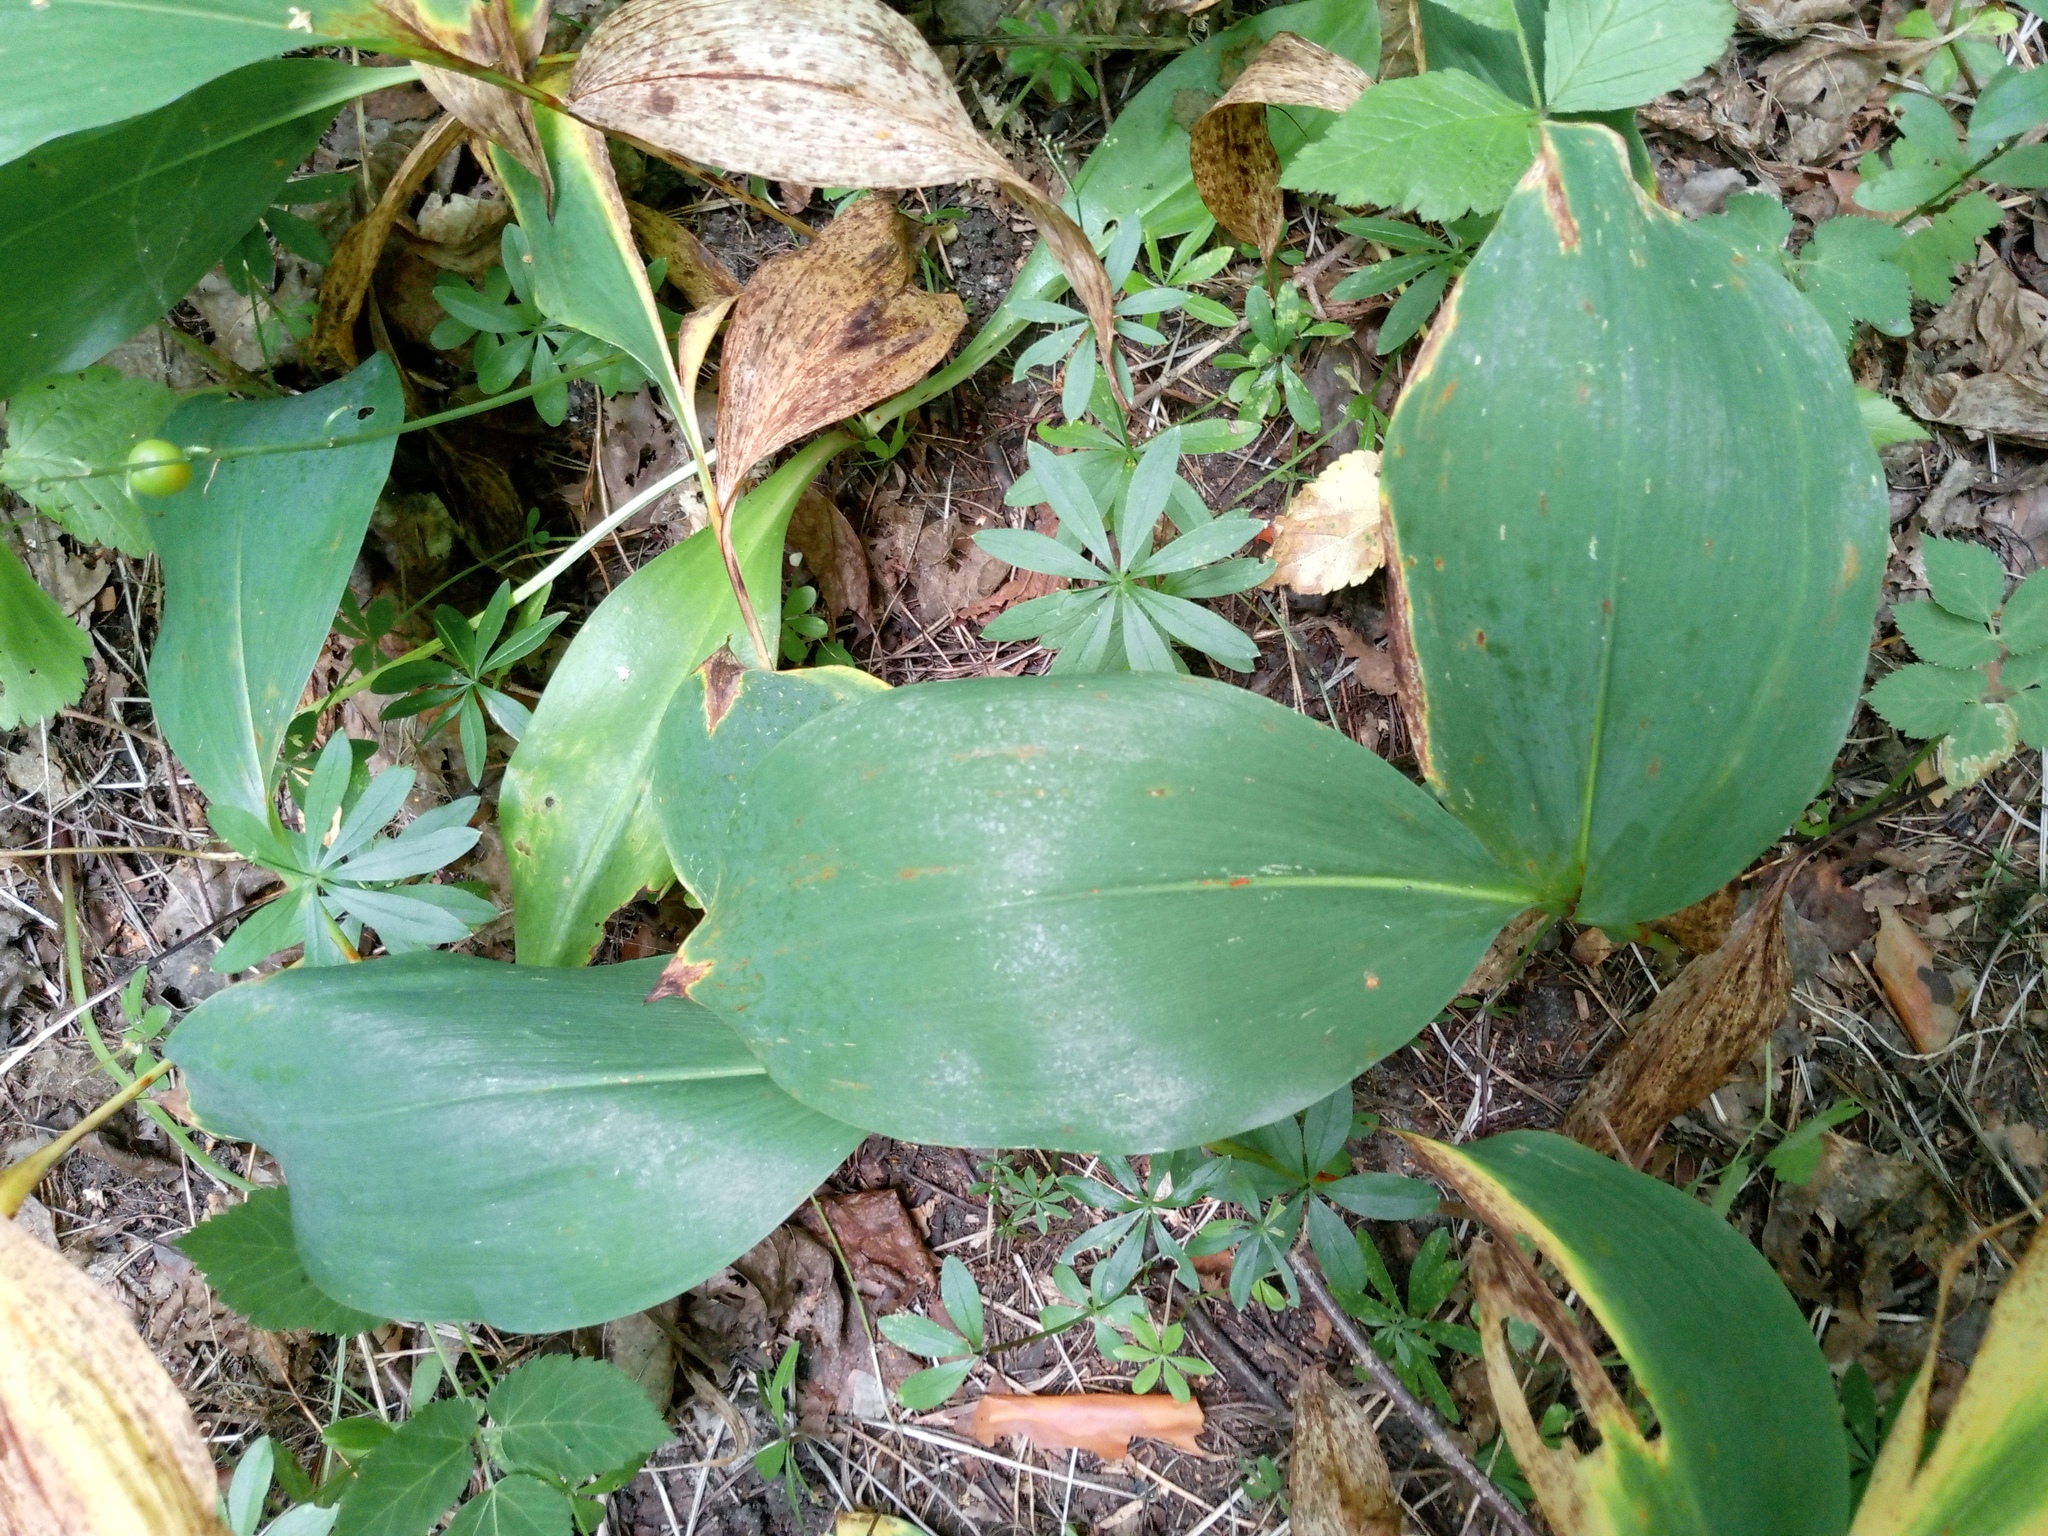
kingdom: Plantae
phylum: Tracheophyta
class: Liliopsida
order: Asparagales
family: Asparagaceae
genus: Convallaria
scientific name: Convallaria majalis
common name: Lily-of-the-valley
